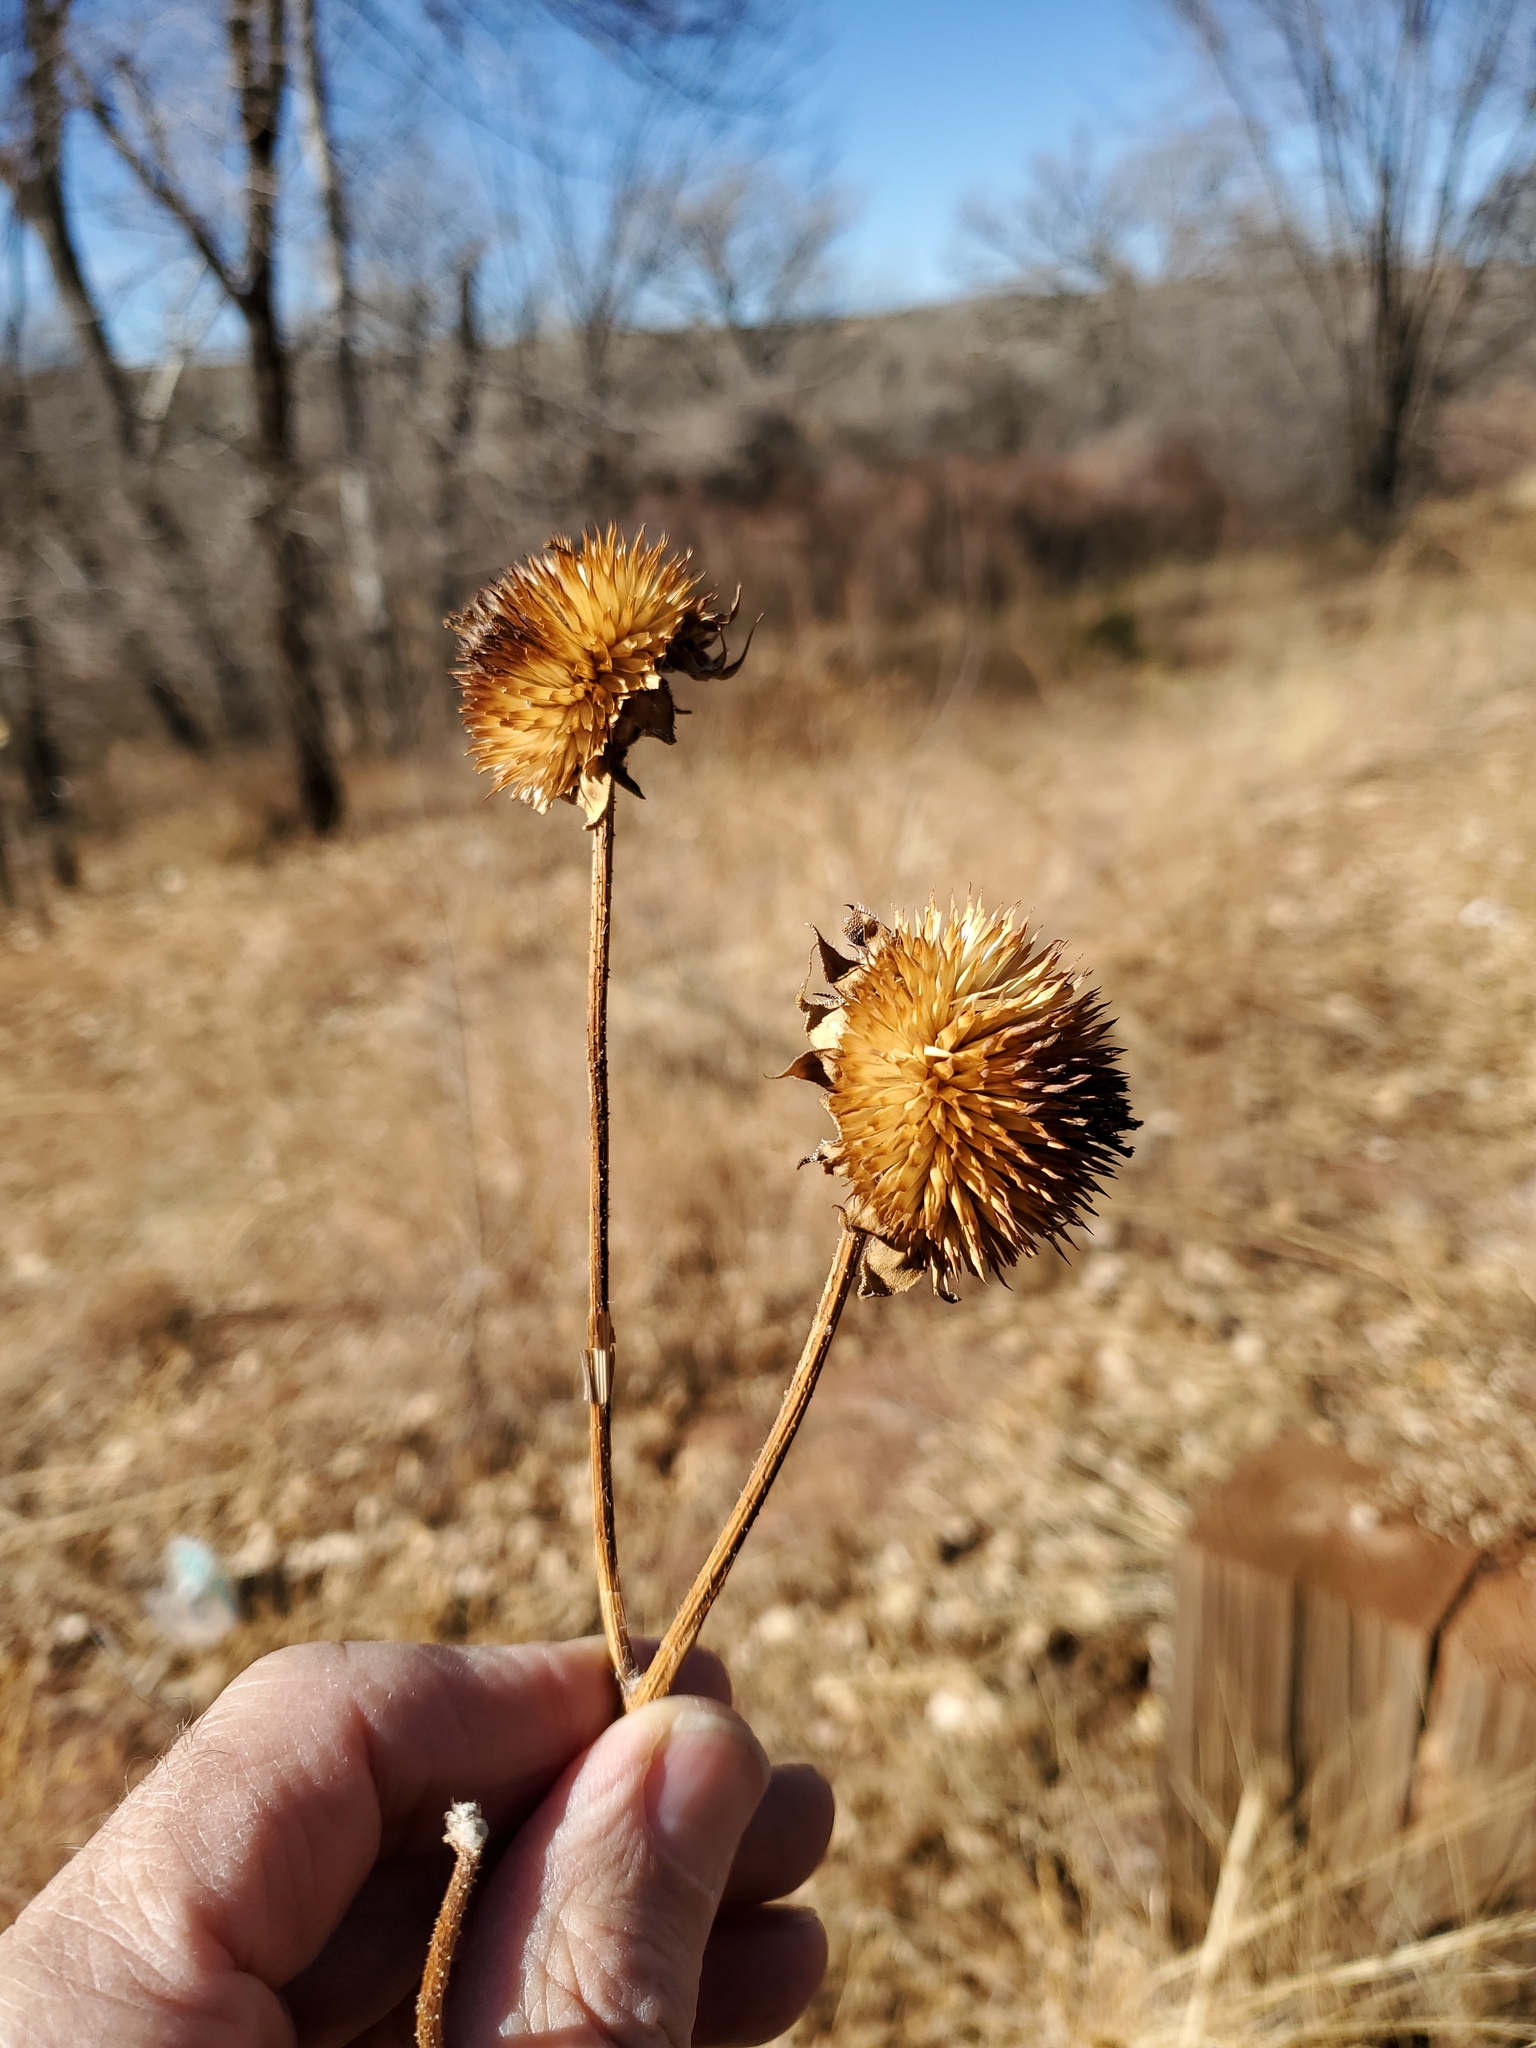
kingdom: Plantae
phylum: Tracheophyta
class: Magnoliopsida
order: Asterales
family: Asteraceae
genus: Helianthus
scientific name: Helianthus annuus
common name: Sunflower
